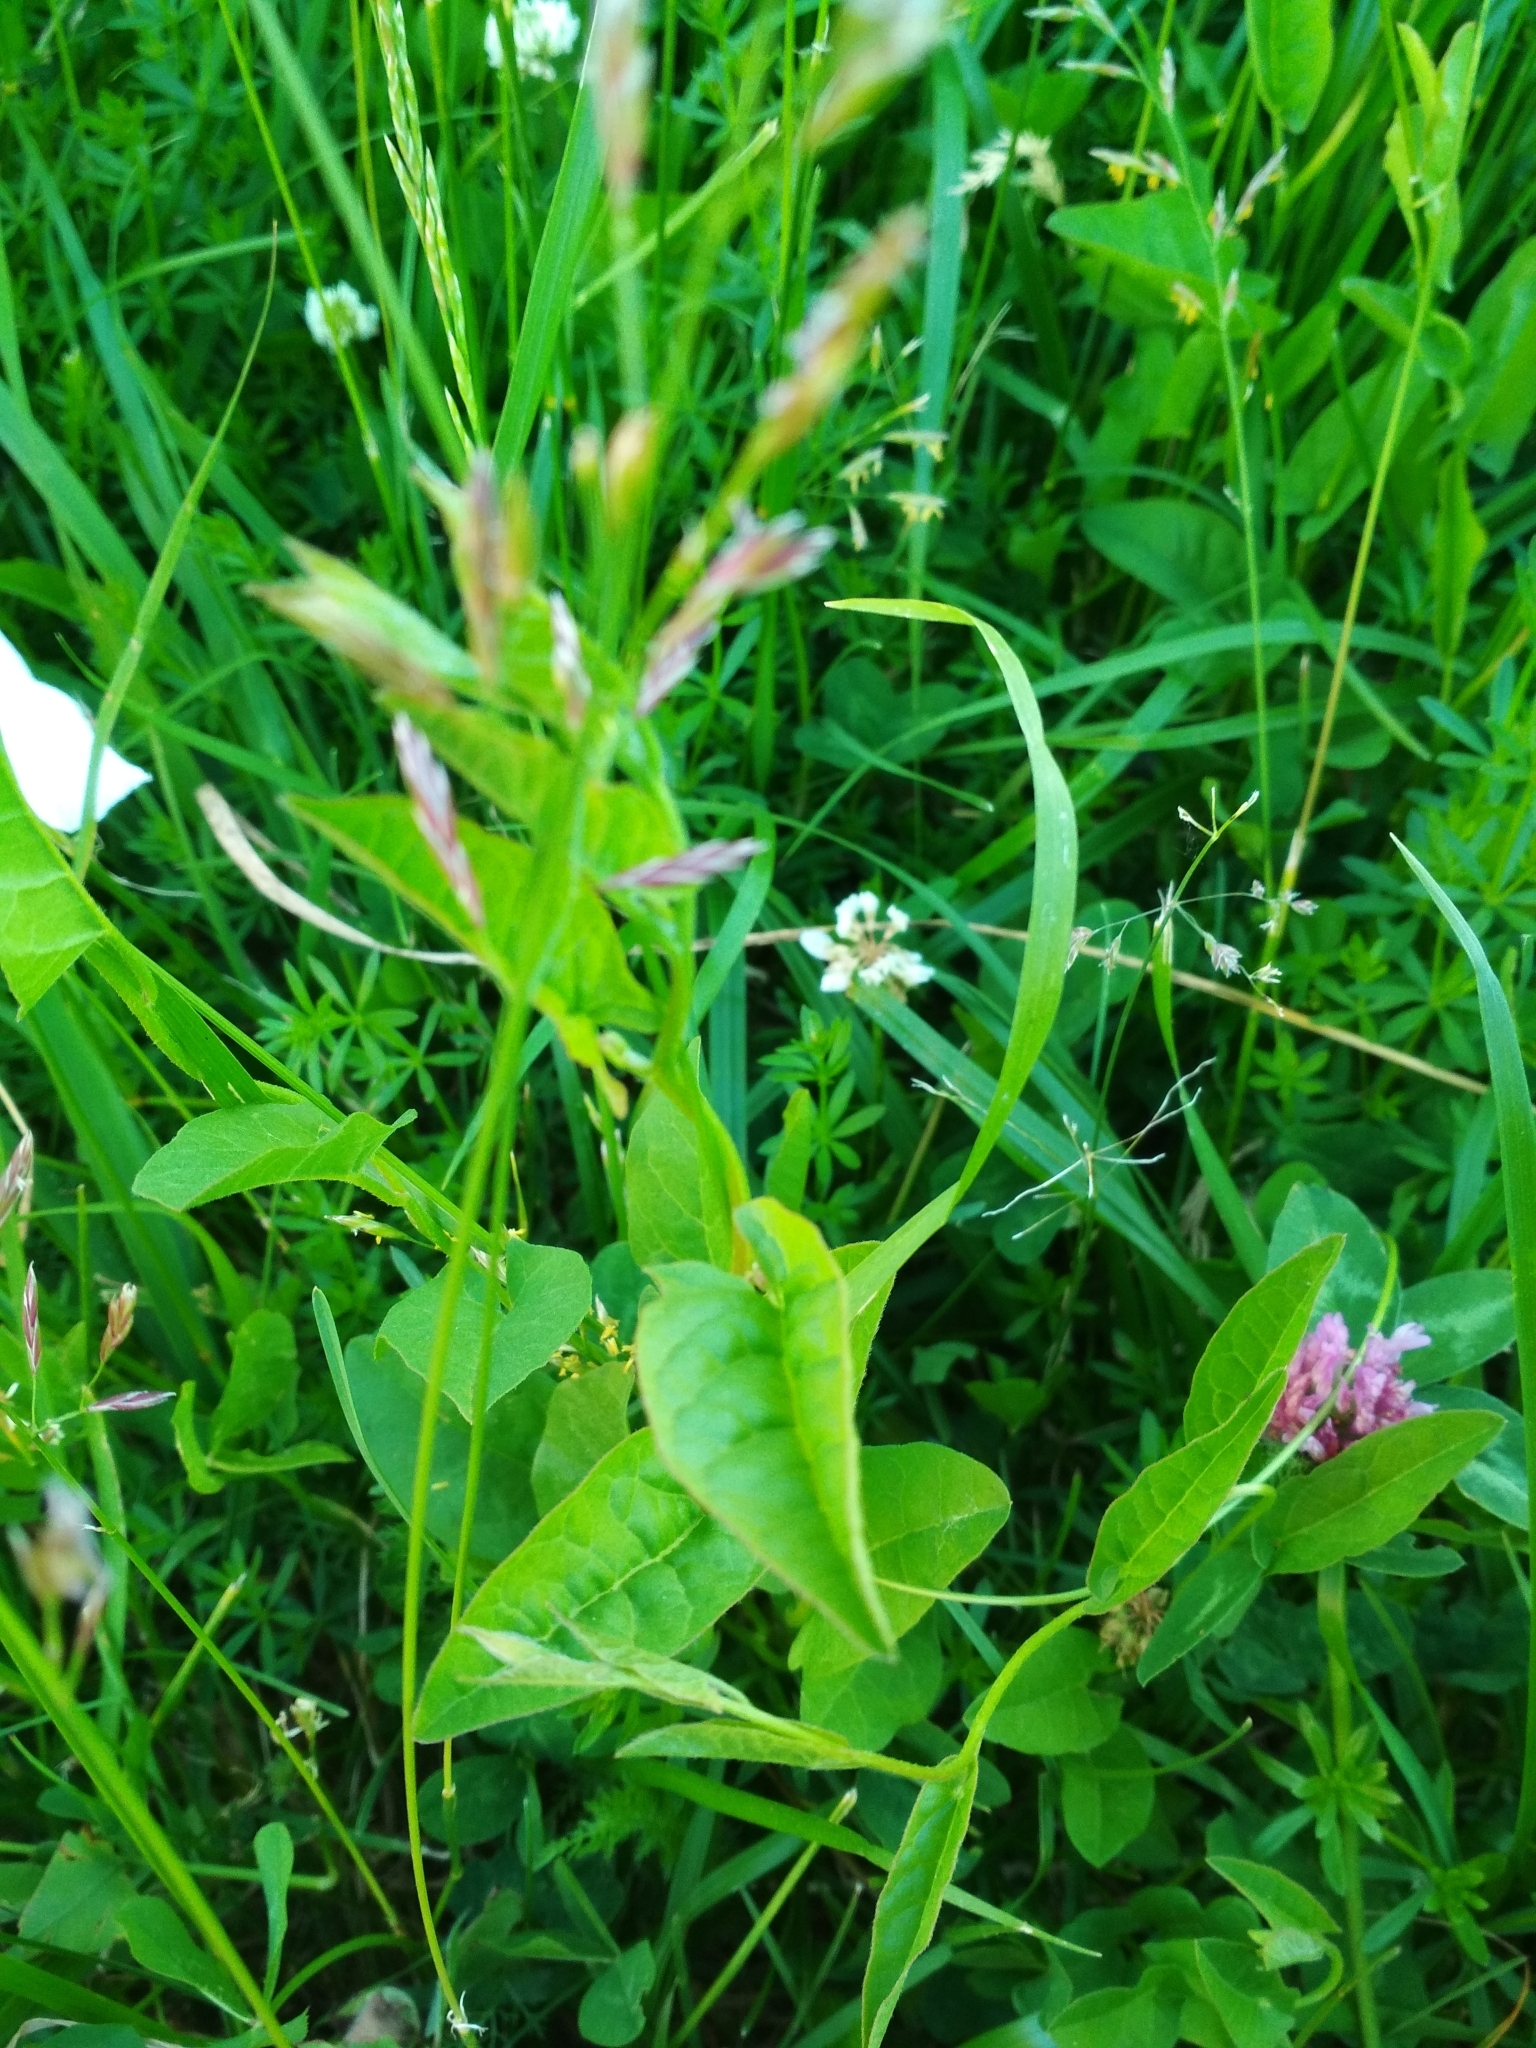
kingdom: Plantae
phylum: Tracheophyta
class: Magnoliopsida
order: Solanales
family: Convolvulaceae
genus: Convolvulus
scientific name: Convolvulus arvensis
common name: Field bindweed
